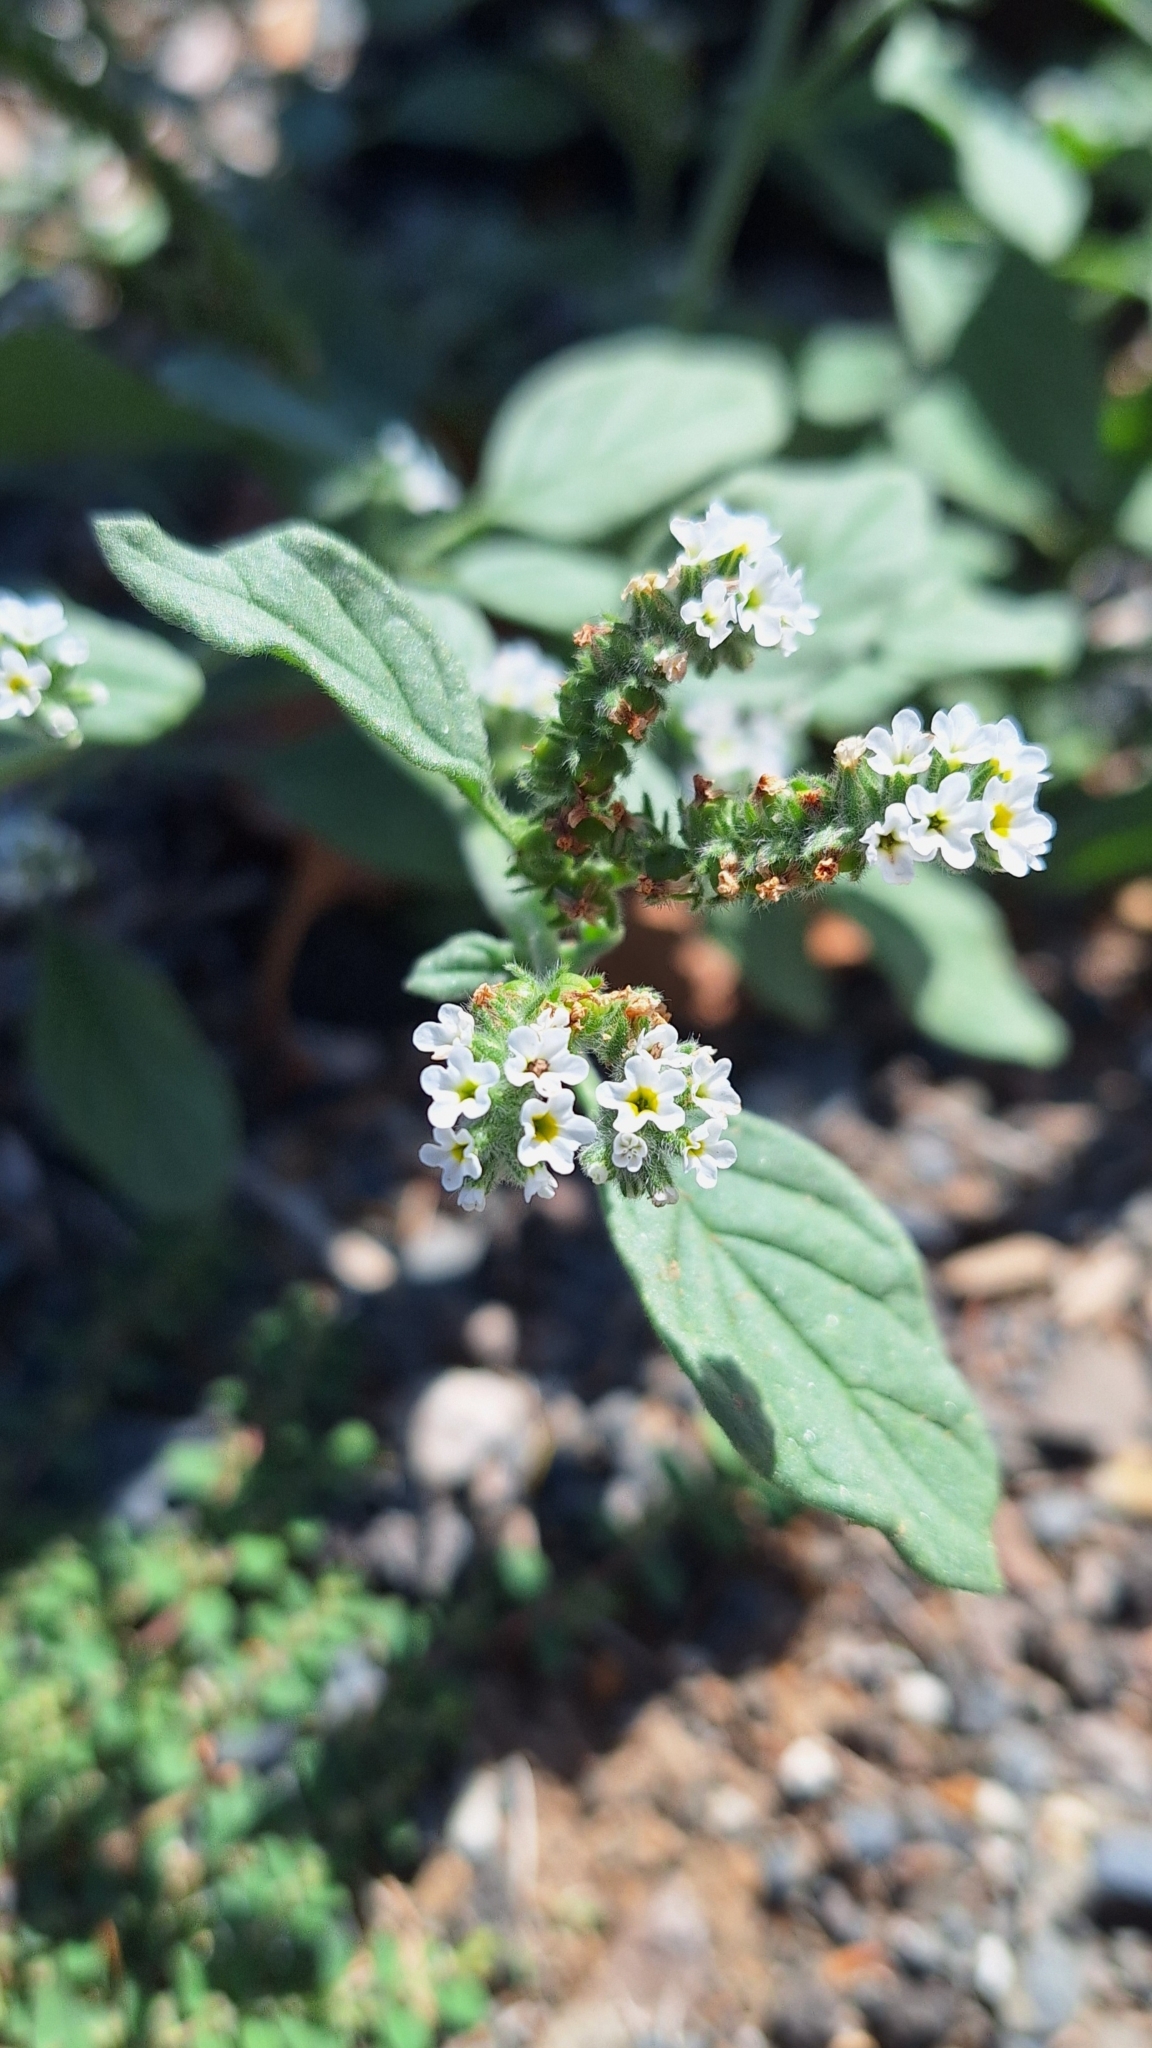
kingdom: Plantae
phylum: Tracheophyta
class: Magnoliopsida
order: Boraginales
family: Heliotropiaceae
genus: Heliotropium
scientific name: Heliotropium europaeum
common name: European heliotrope
